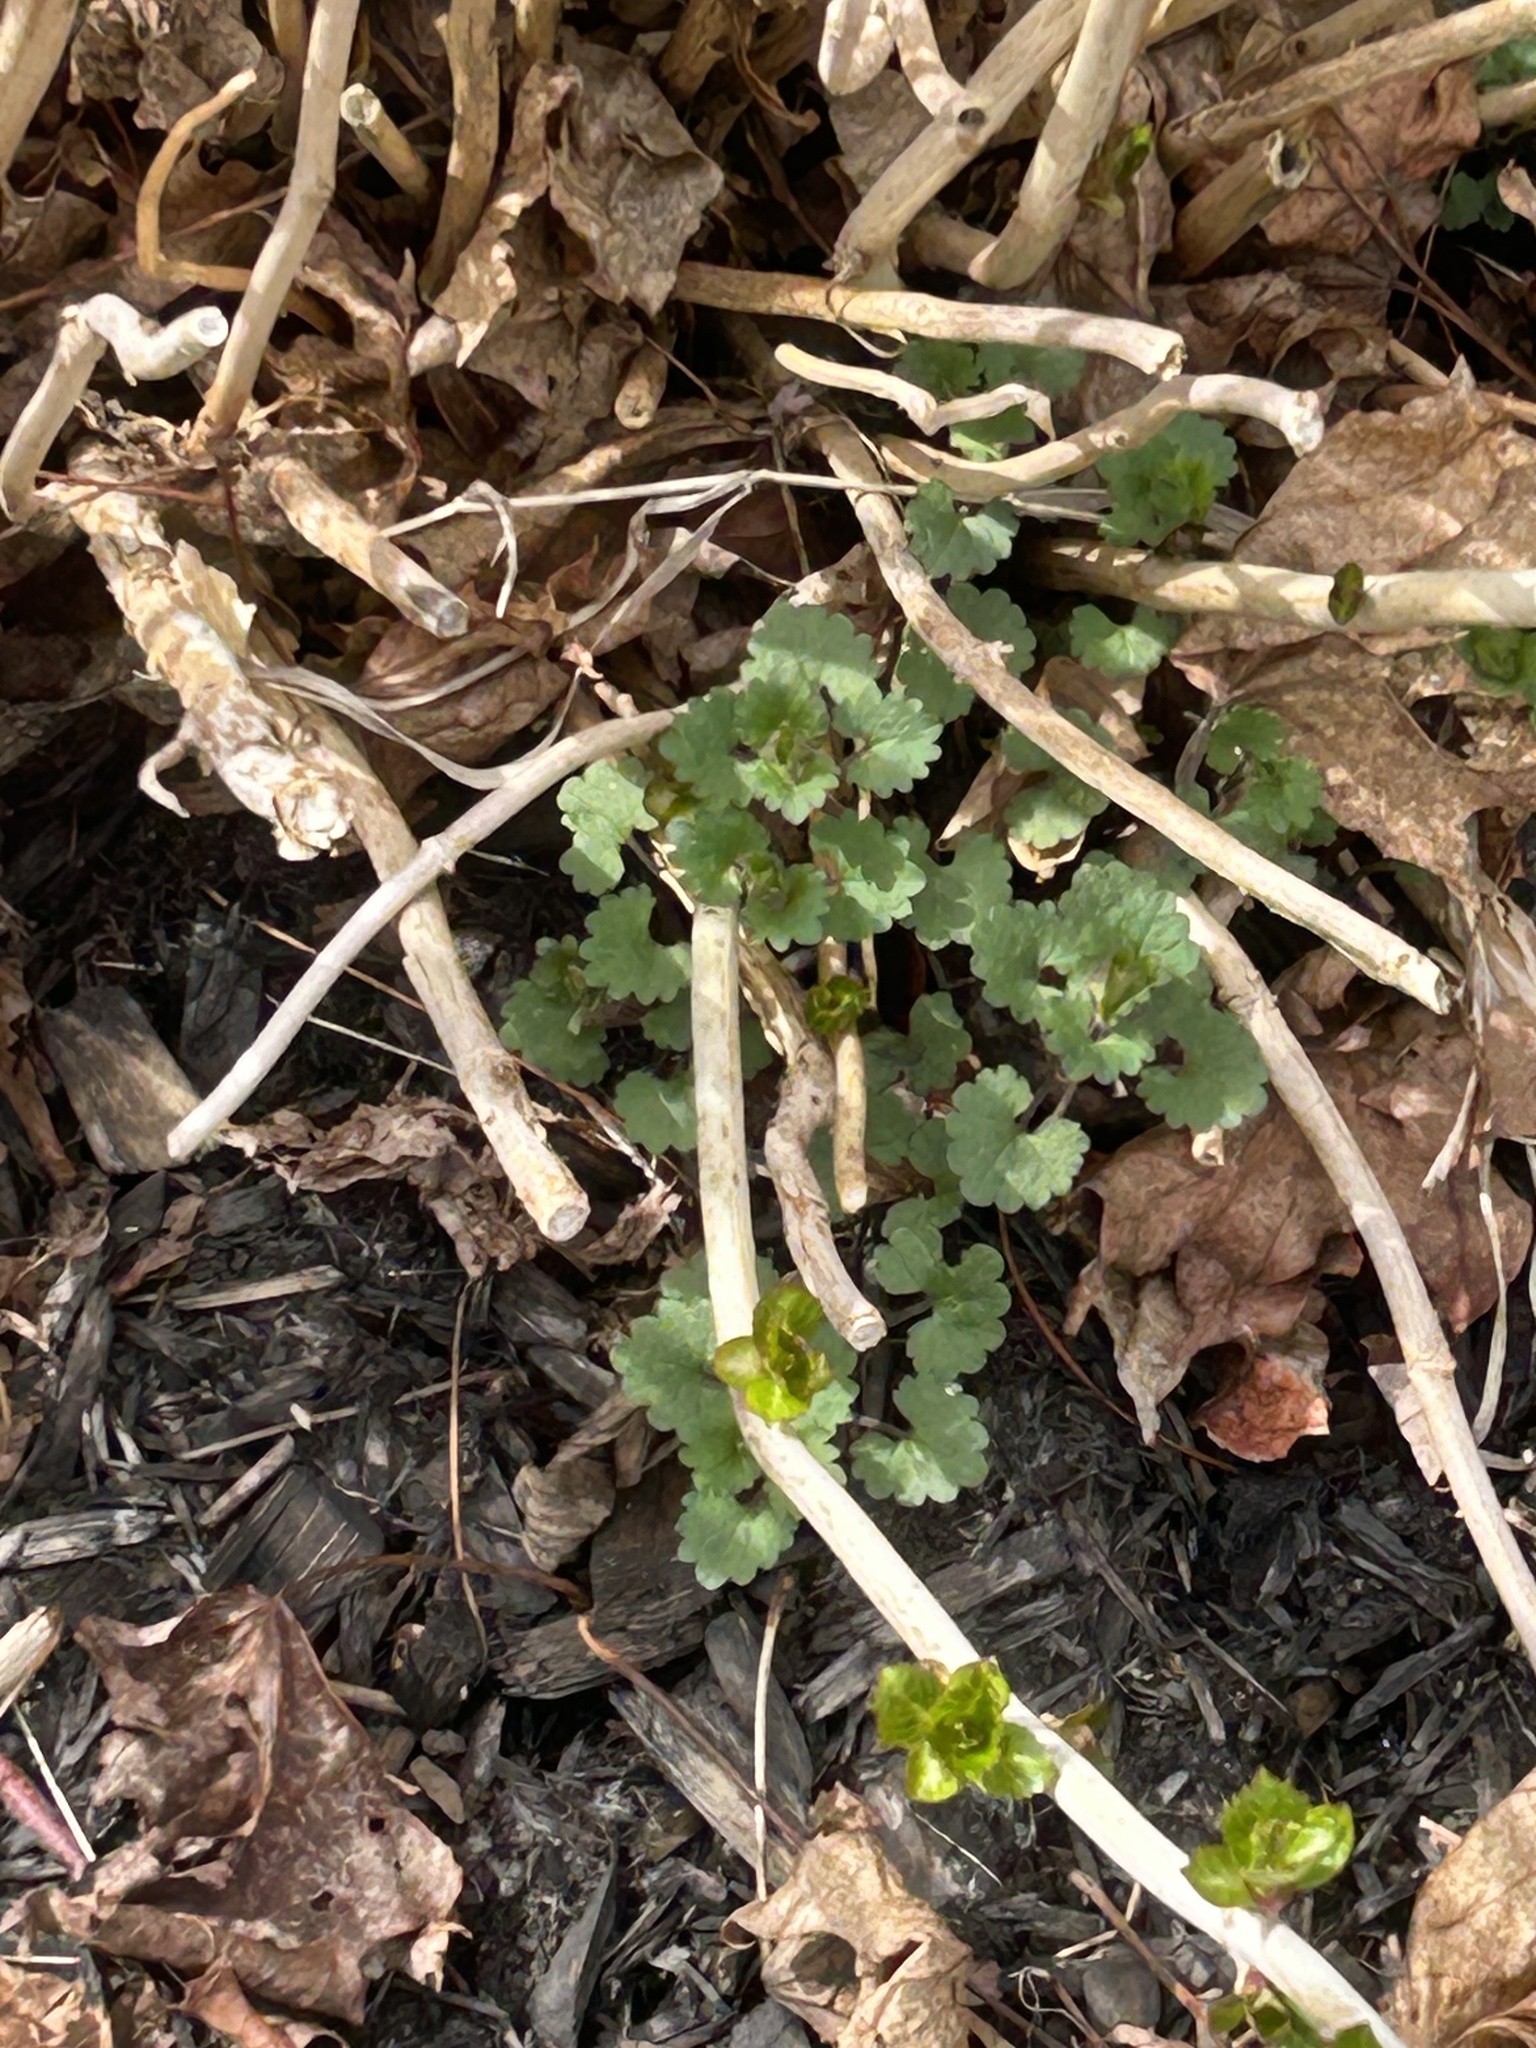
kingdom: Plantae
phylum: Tracheophyta
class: Magnoliopsida
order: Lamiales
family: Lamiaceae
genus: Glechoma
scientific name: Glechoma hederacea
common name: Ground ivy
